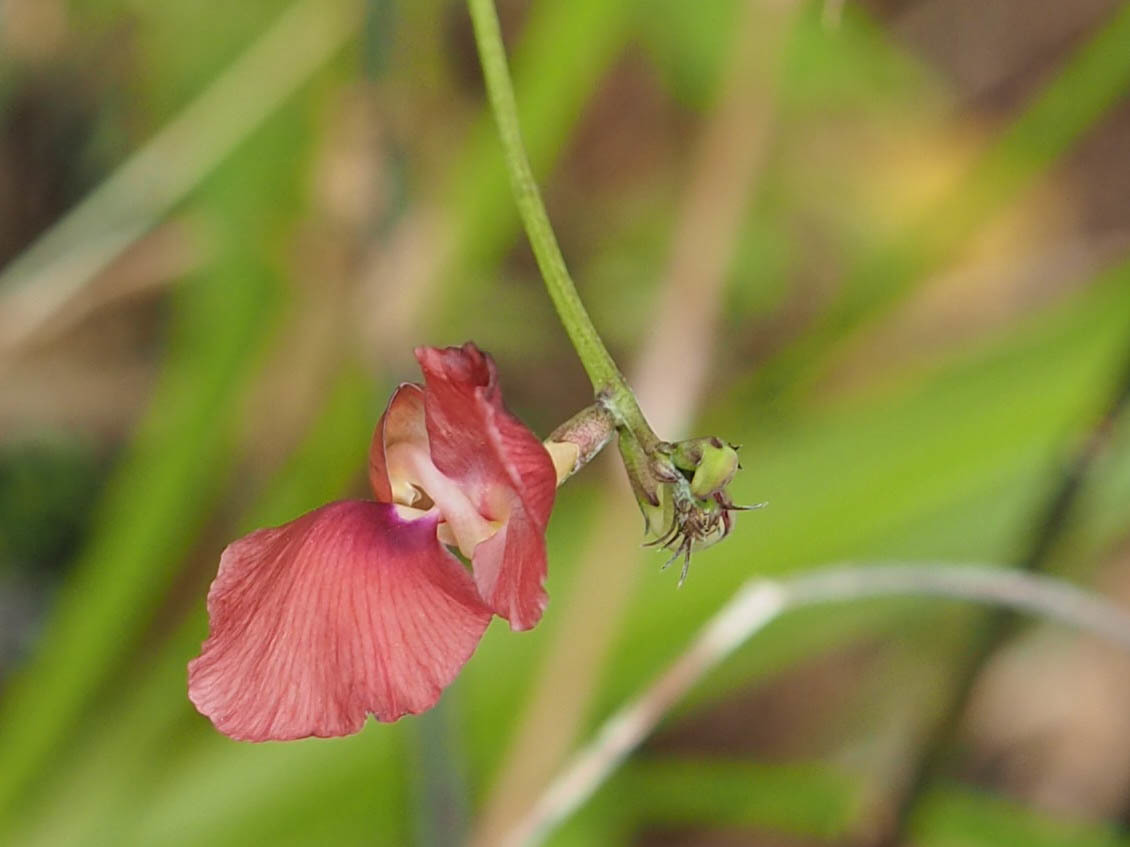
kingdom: Plantae
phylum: Tracheophyta
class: Magnoliopsida
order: Fabales
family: Fabaceae
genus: Macroptilium
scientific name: Macroptilium lathyroides
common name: Wild bushbean
